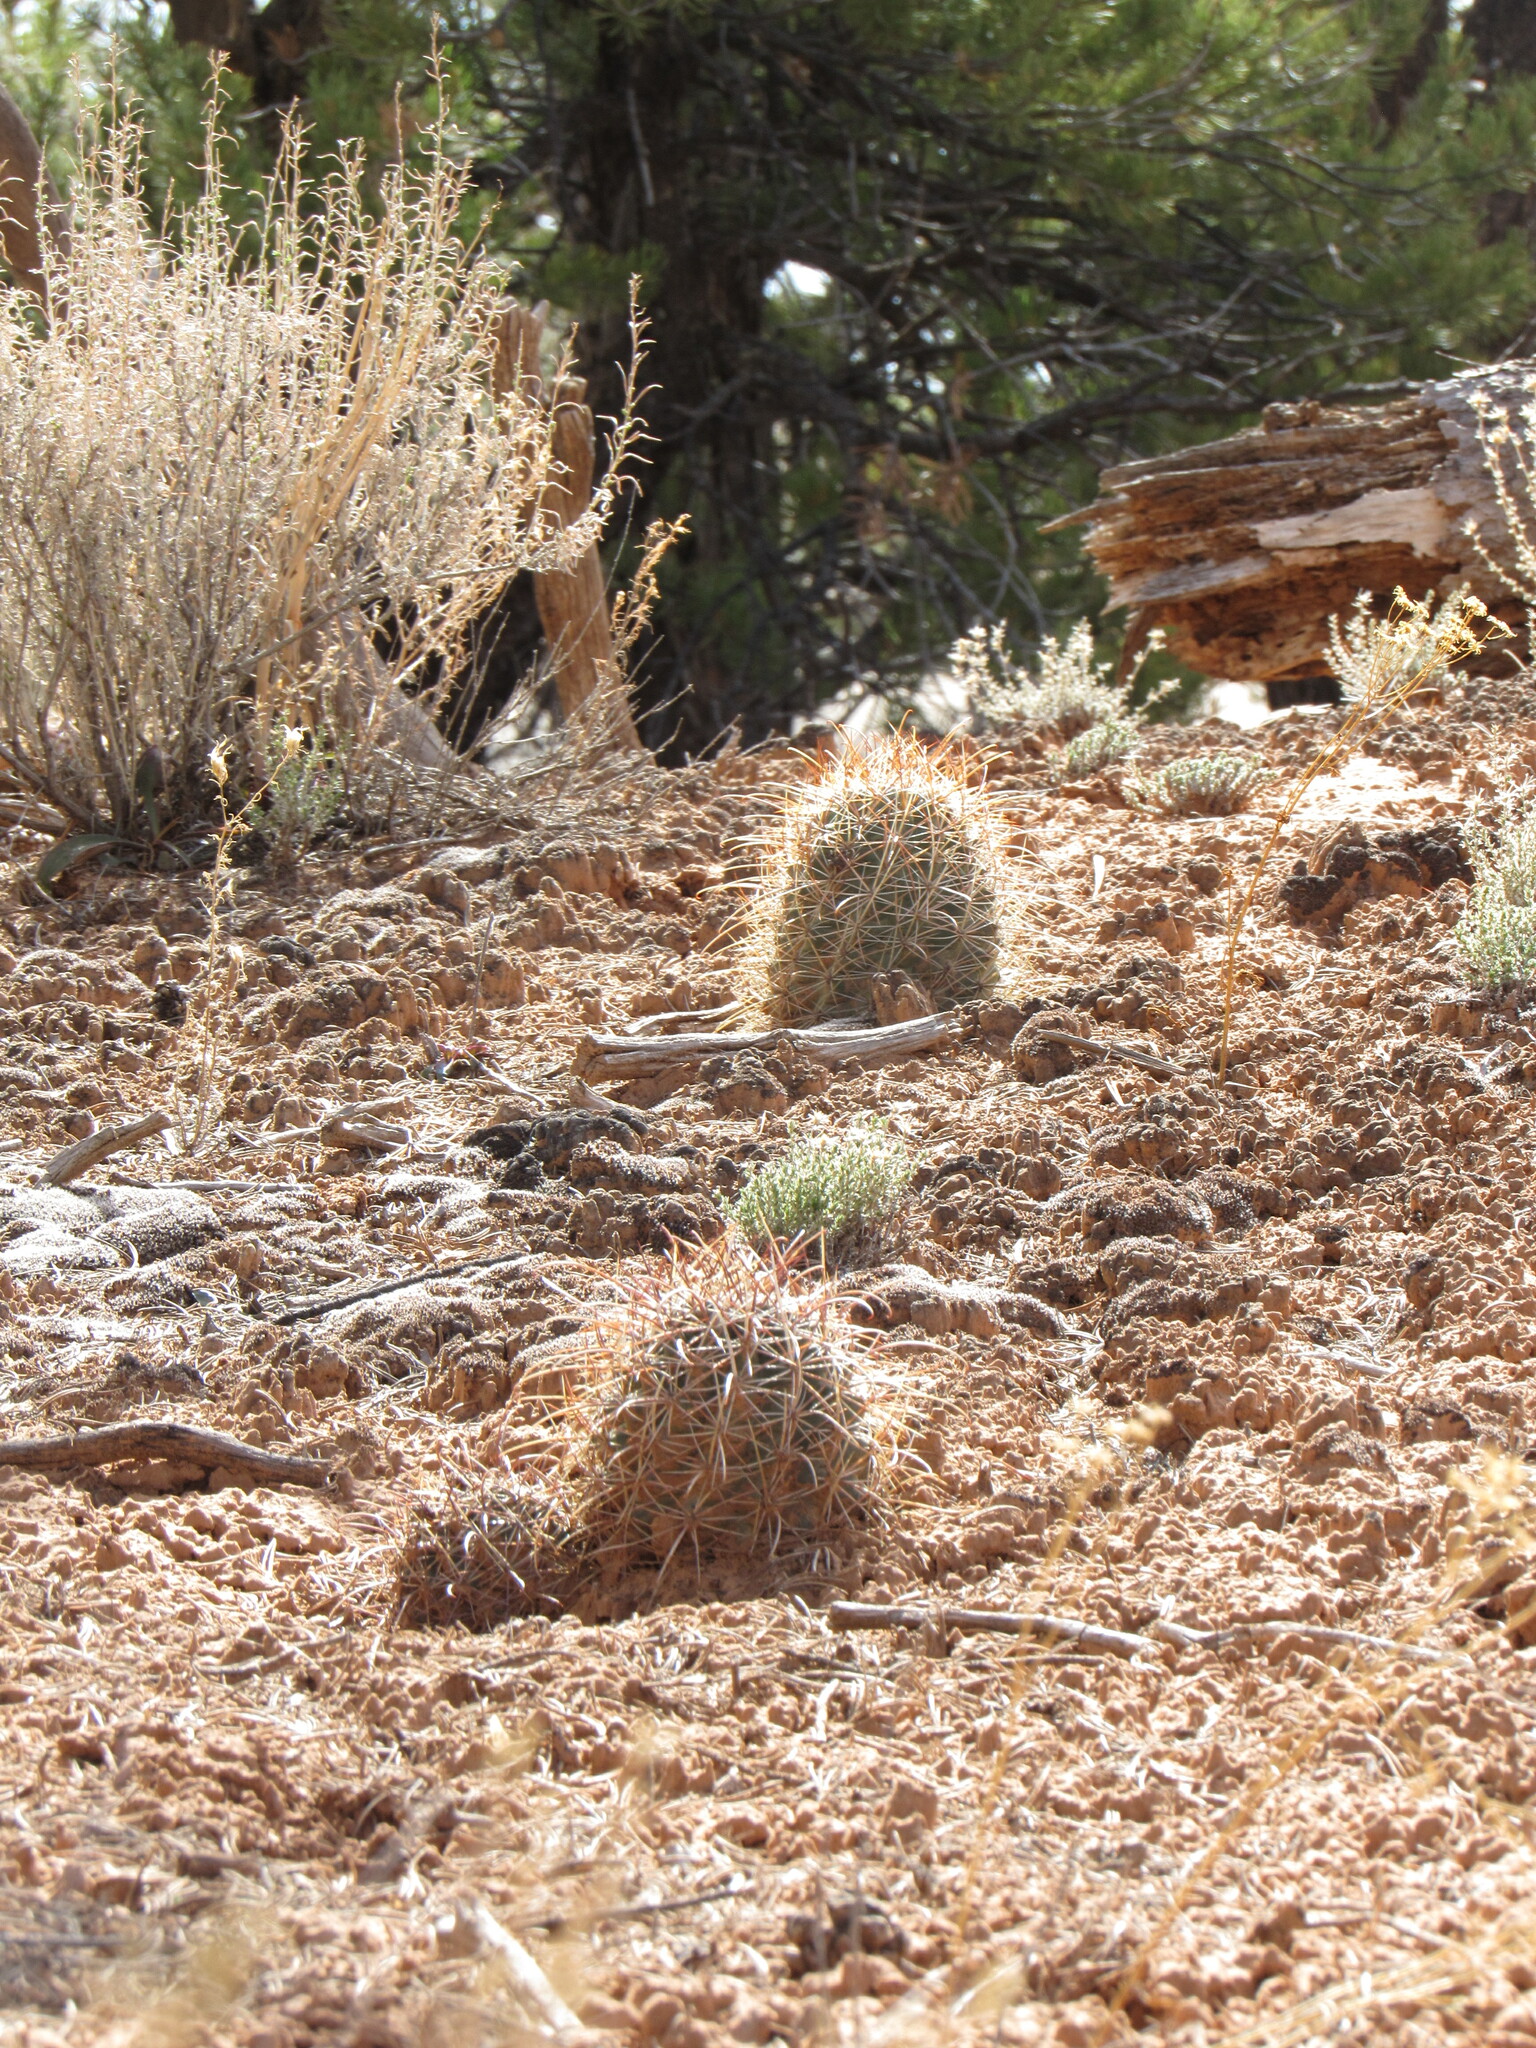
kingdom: Plantae
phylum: Tracheophyta
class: Magnoliopsida
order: Caryophyllales
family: Cactaceae
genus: Sclerocactus
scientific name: Sclerocactus parviflorus
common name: Small-flower fishhook cactus
